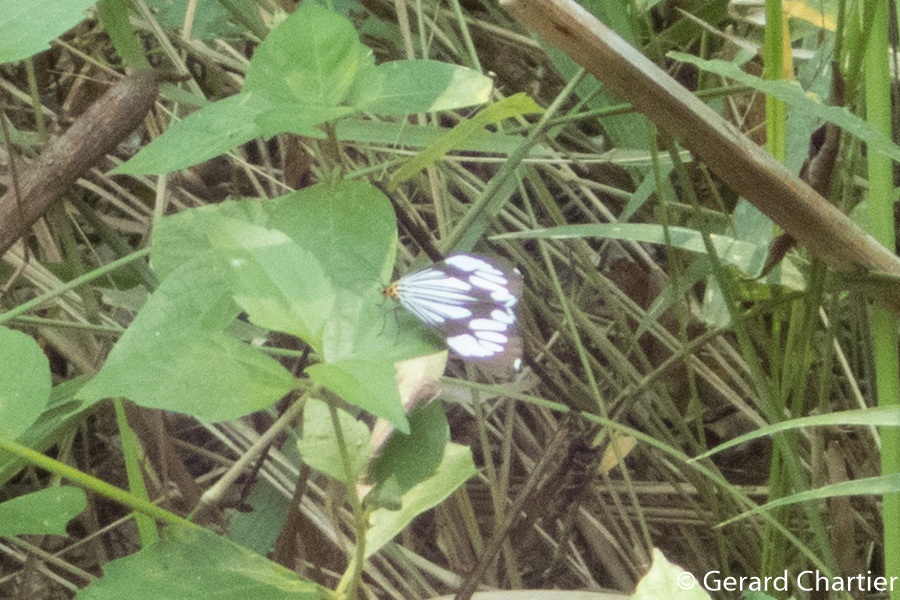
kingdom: Animalia
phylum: Arthropoda
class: Insecta
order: Lepidoptera
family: Erebidae
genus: Nyctemera
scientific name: Nyctemera coleta
